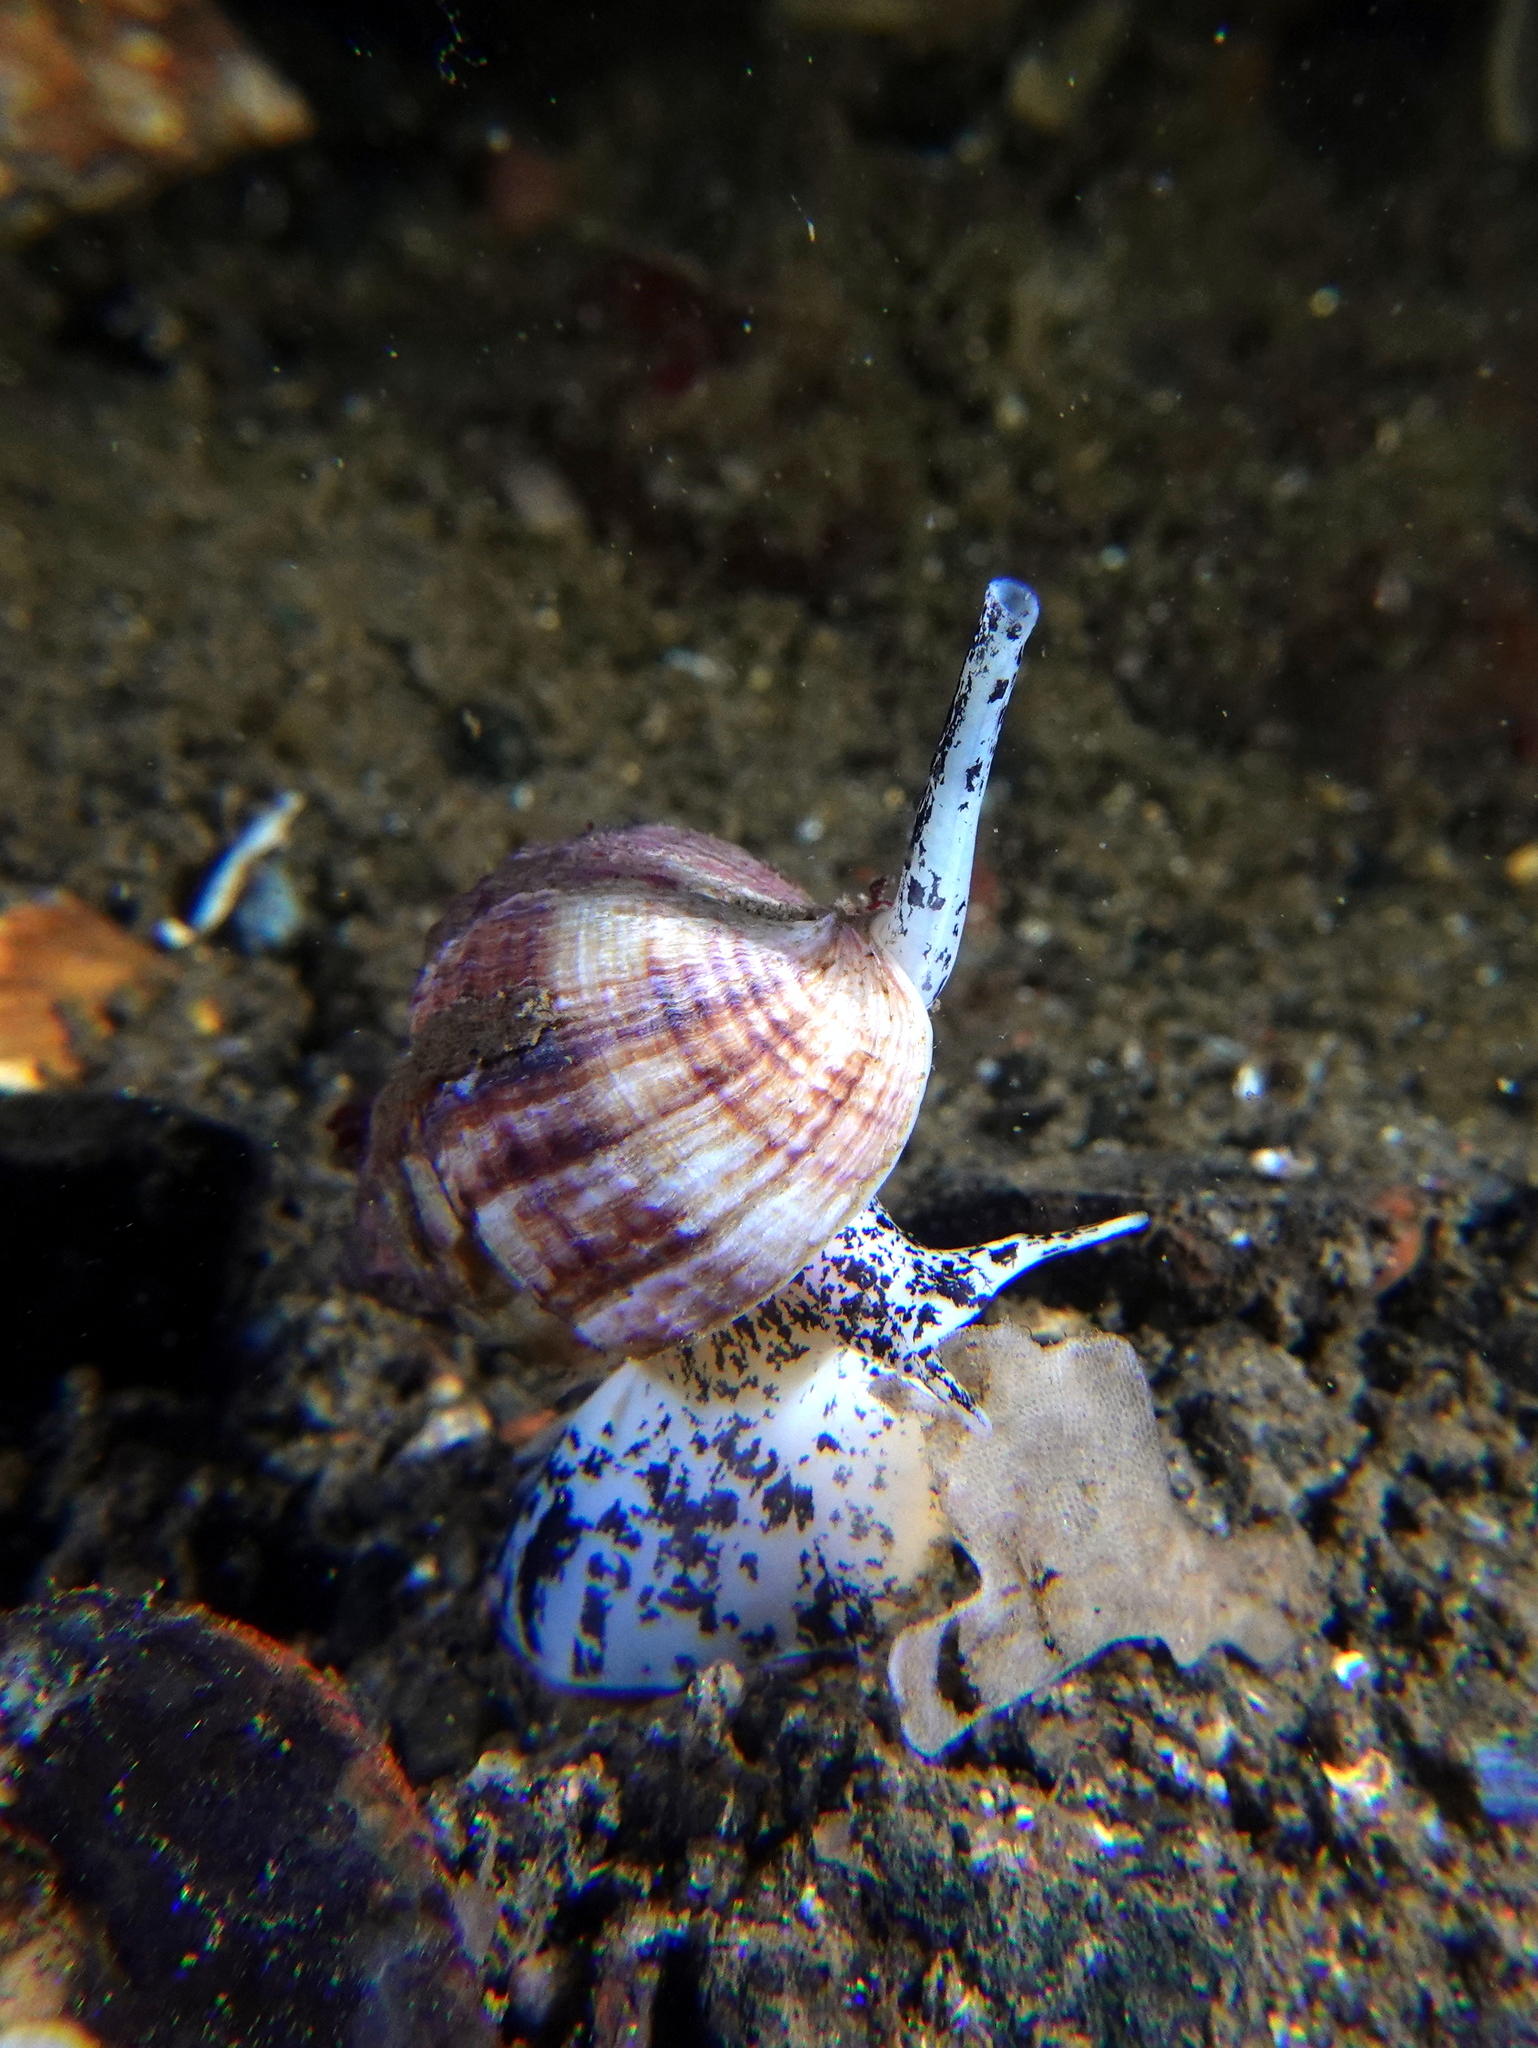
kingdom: Animalia
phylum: Mollusca
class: Gastropoda
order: Neogastropoda
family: Buccinidae
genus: Buccinum
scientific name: Buccinum undatum
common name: Common whelk
